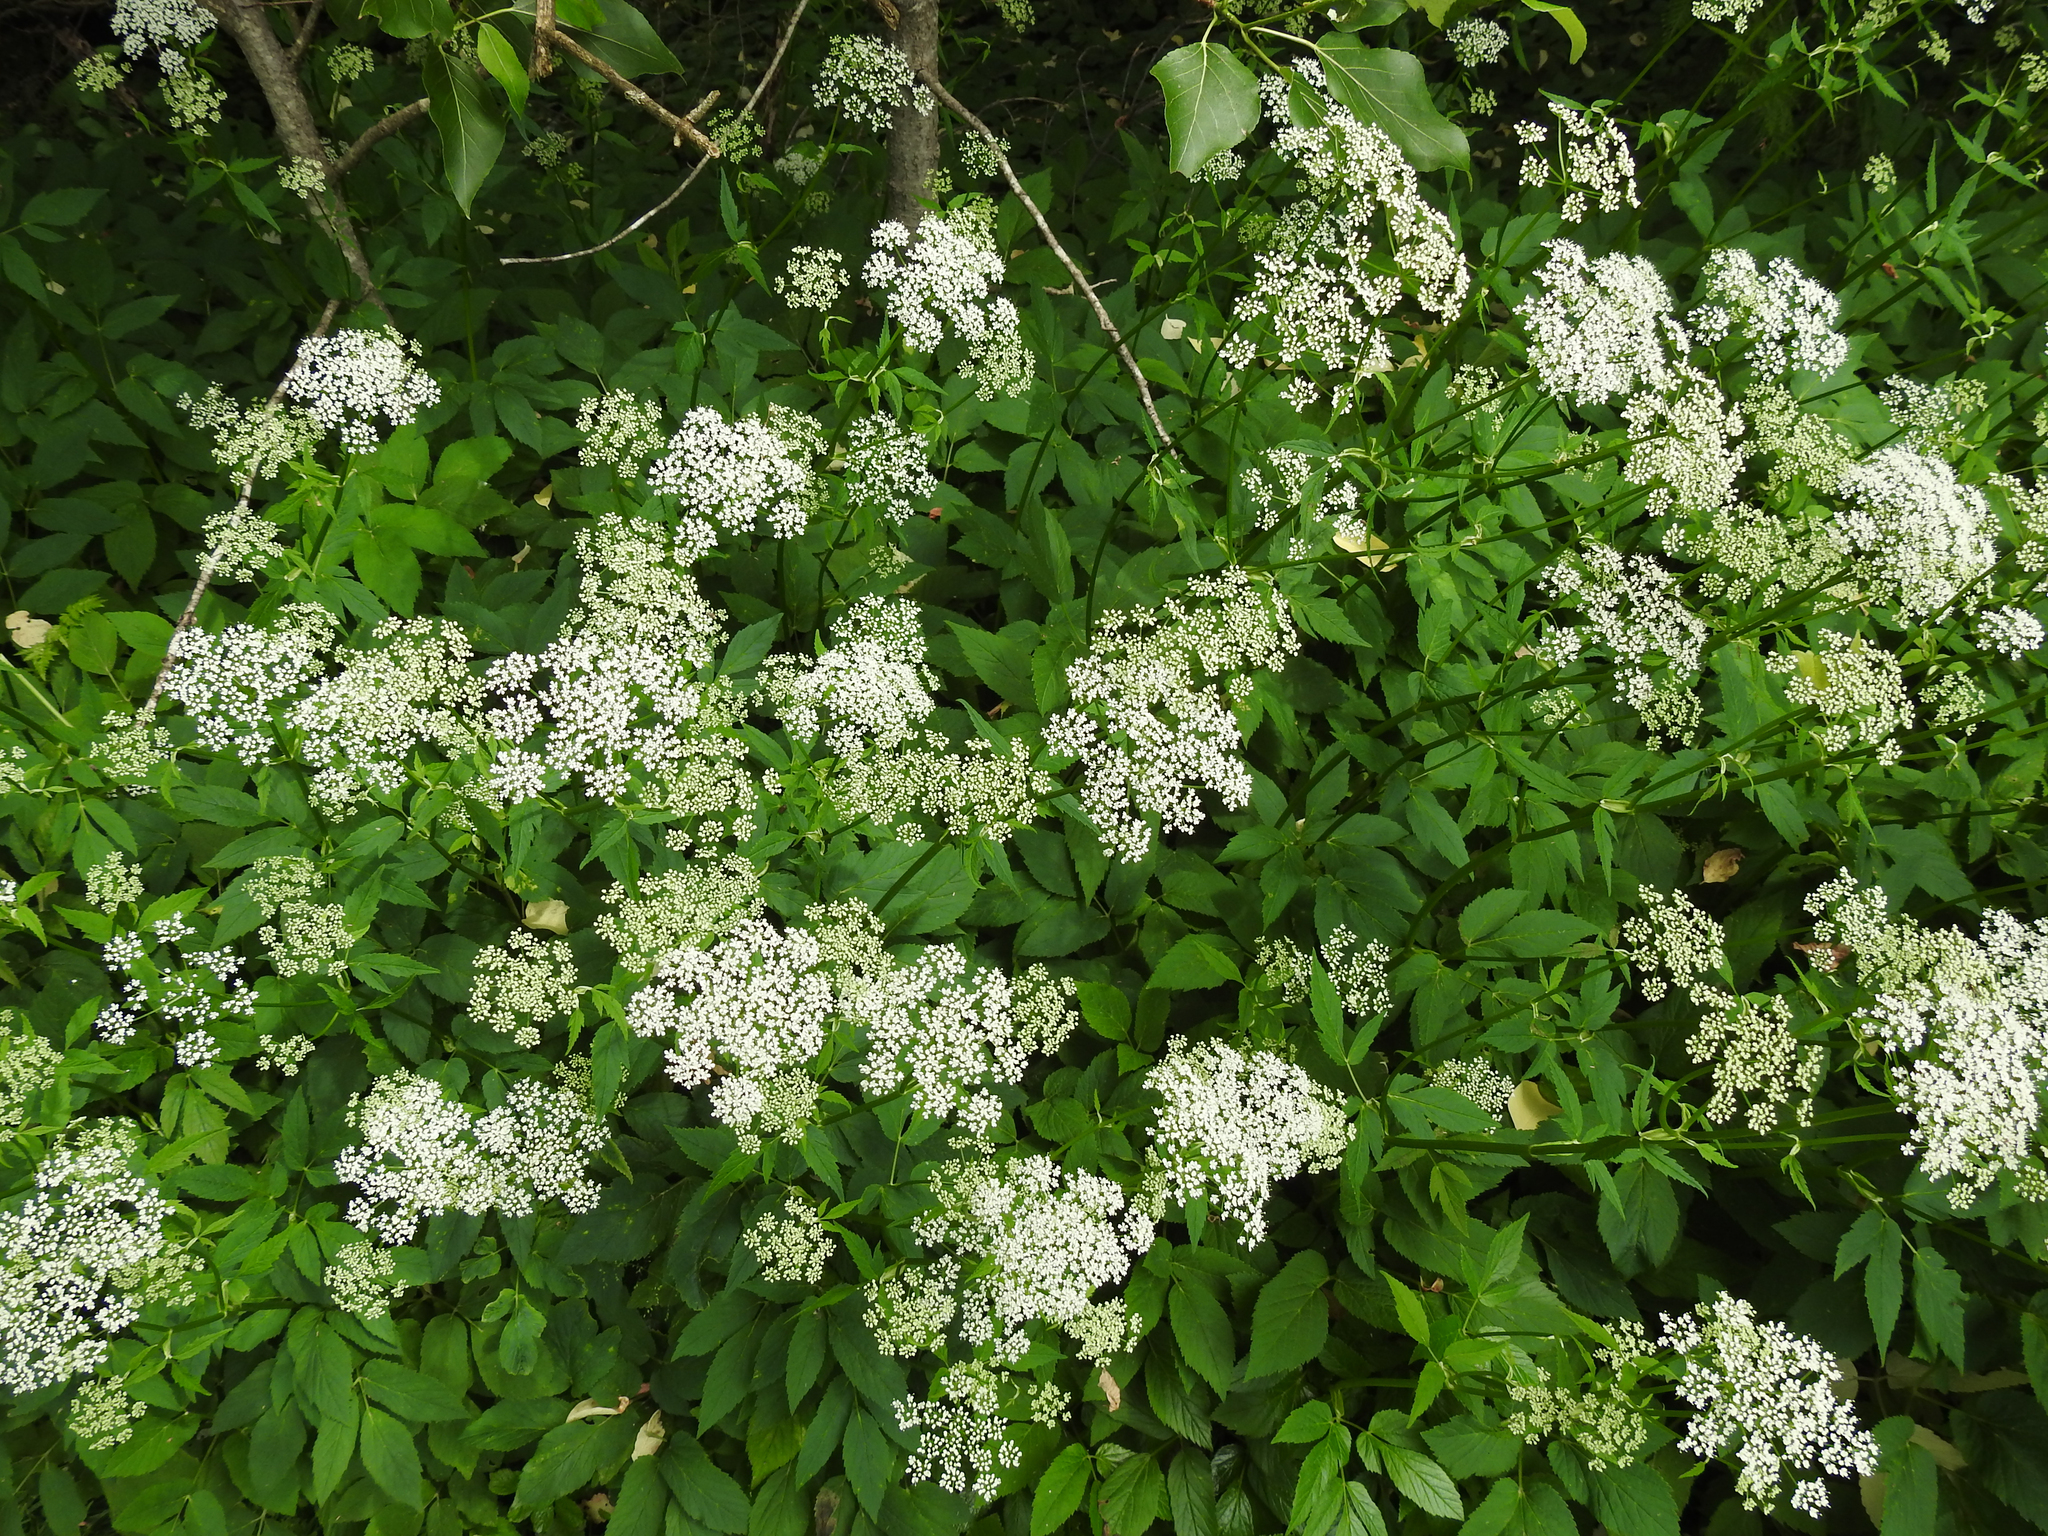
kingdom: Plantae
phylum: Tracheophyta
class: Magnoliopsida
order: Apiales
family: Apiaceae
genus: Aegopodium
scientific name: Aegopodium podagraria
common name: Ground-elder
